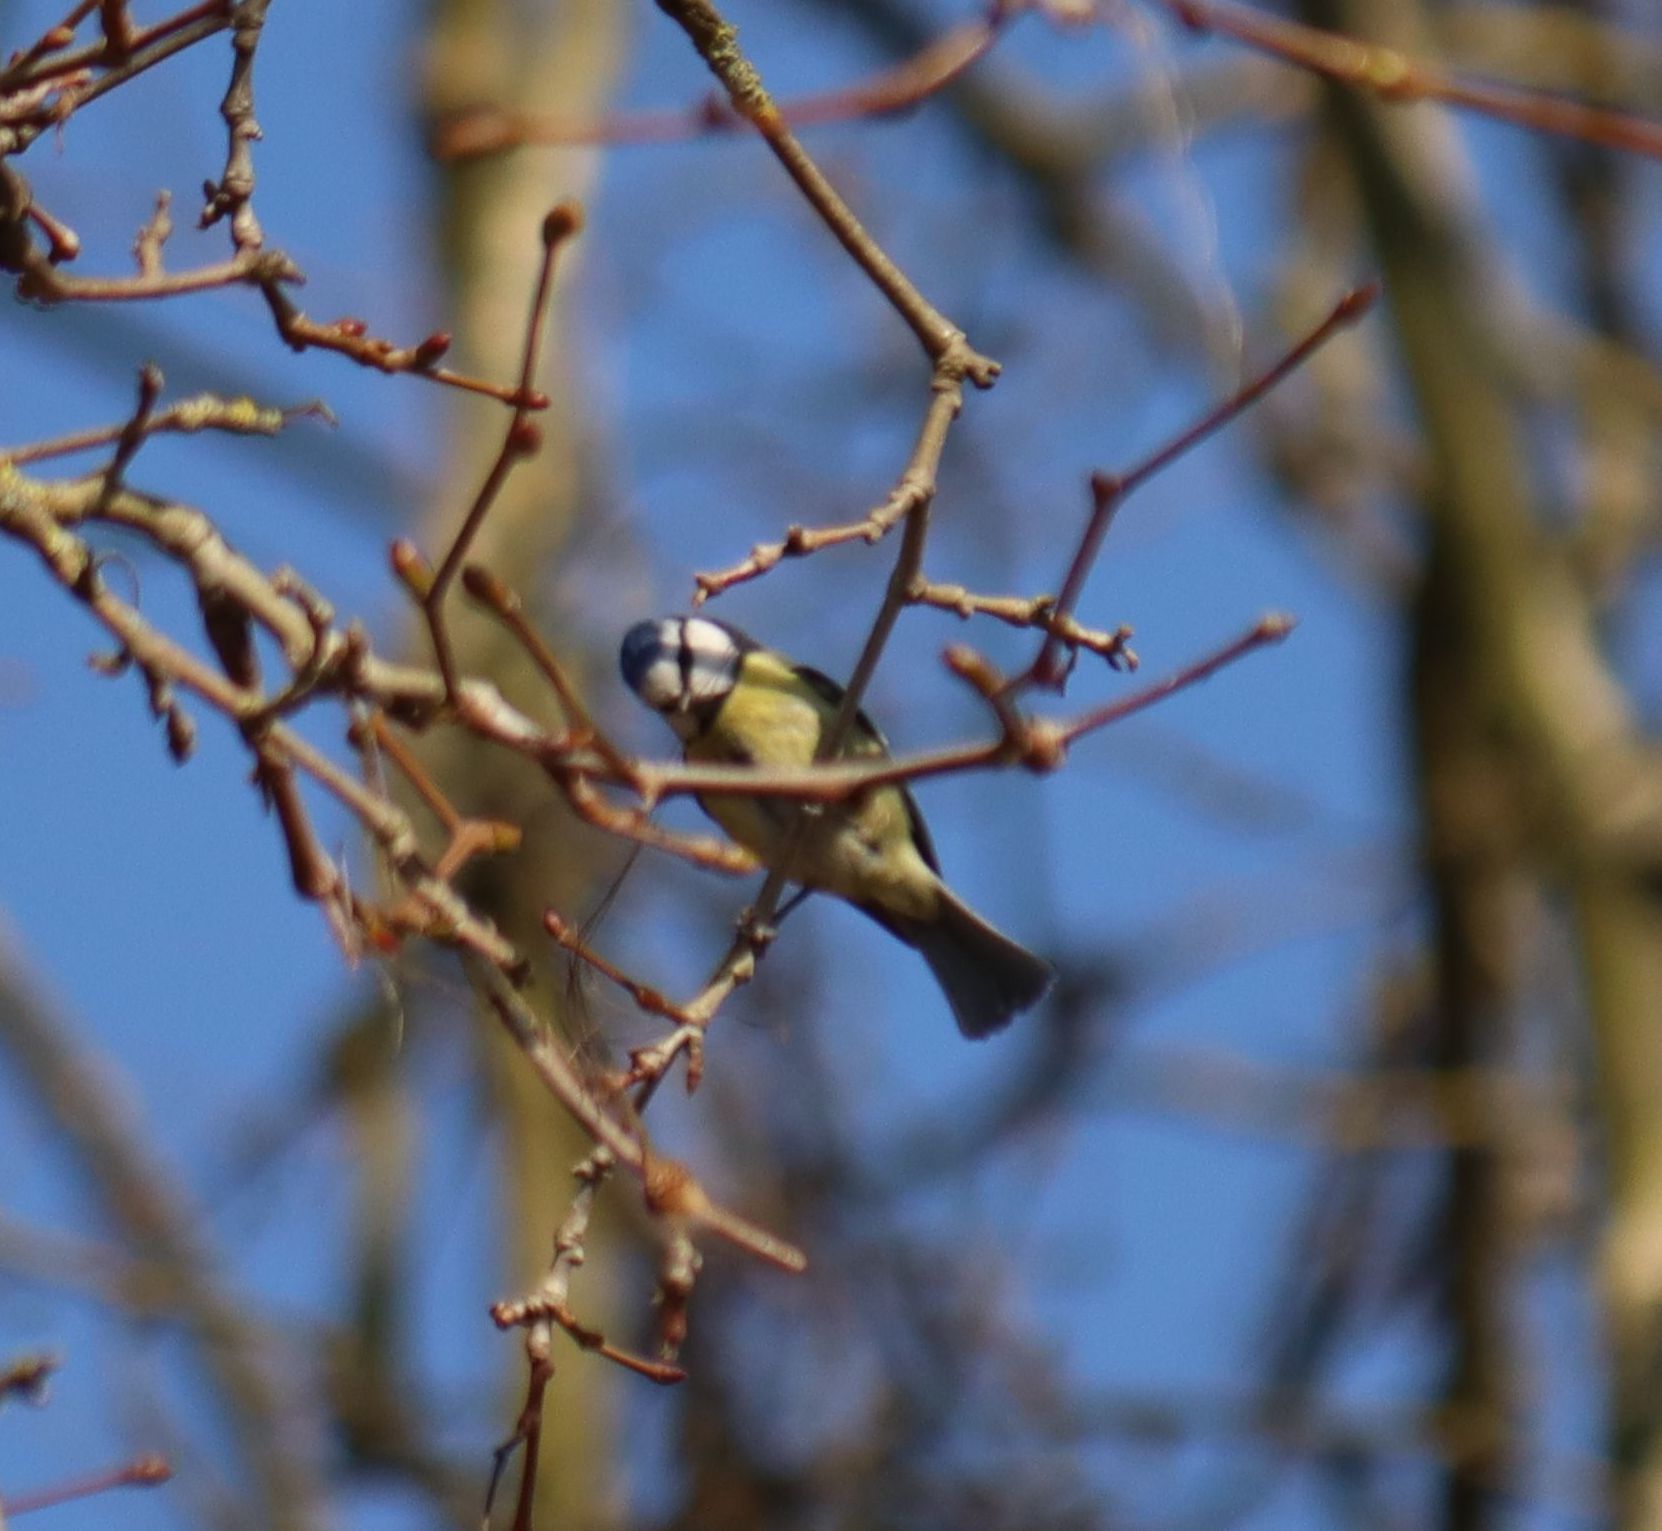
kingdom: Animalia
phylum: Chordata
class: Aves
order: Passeriformes
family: Paridae
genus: Cyanistes
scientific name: Cyanistes caeruleus
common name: Eurasian blue tit
